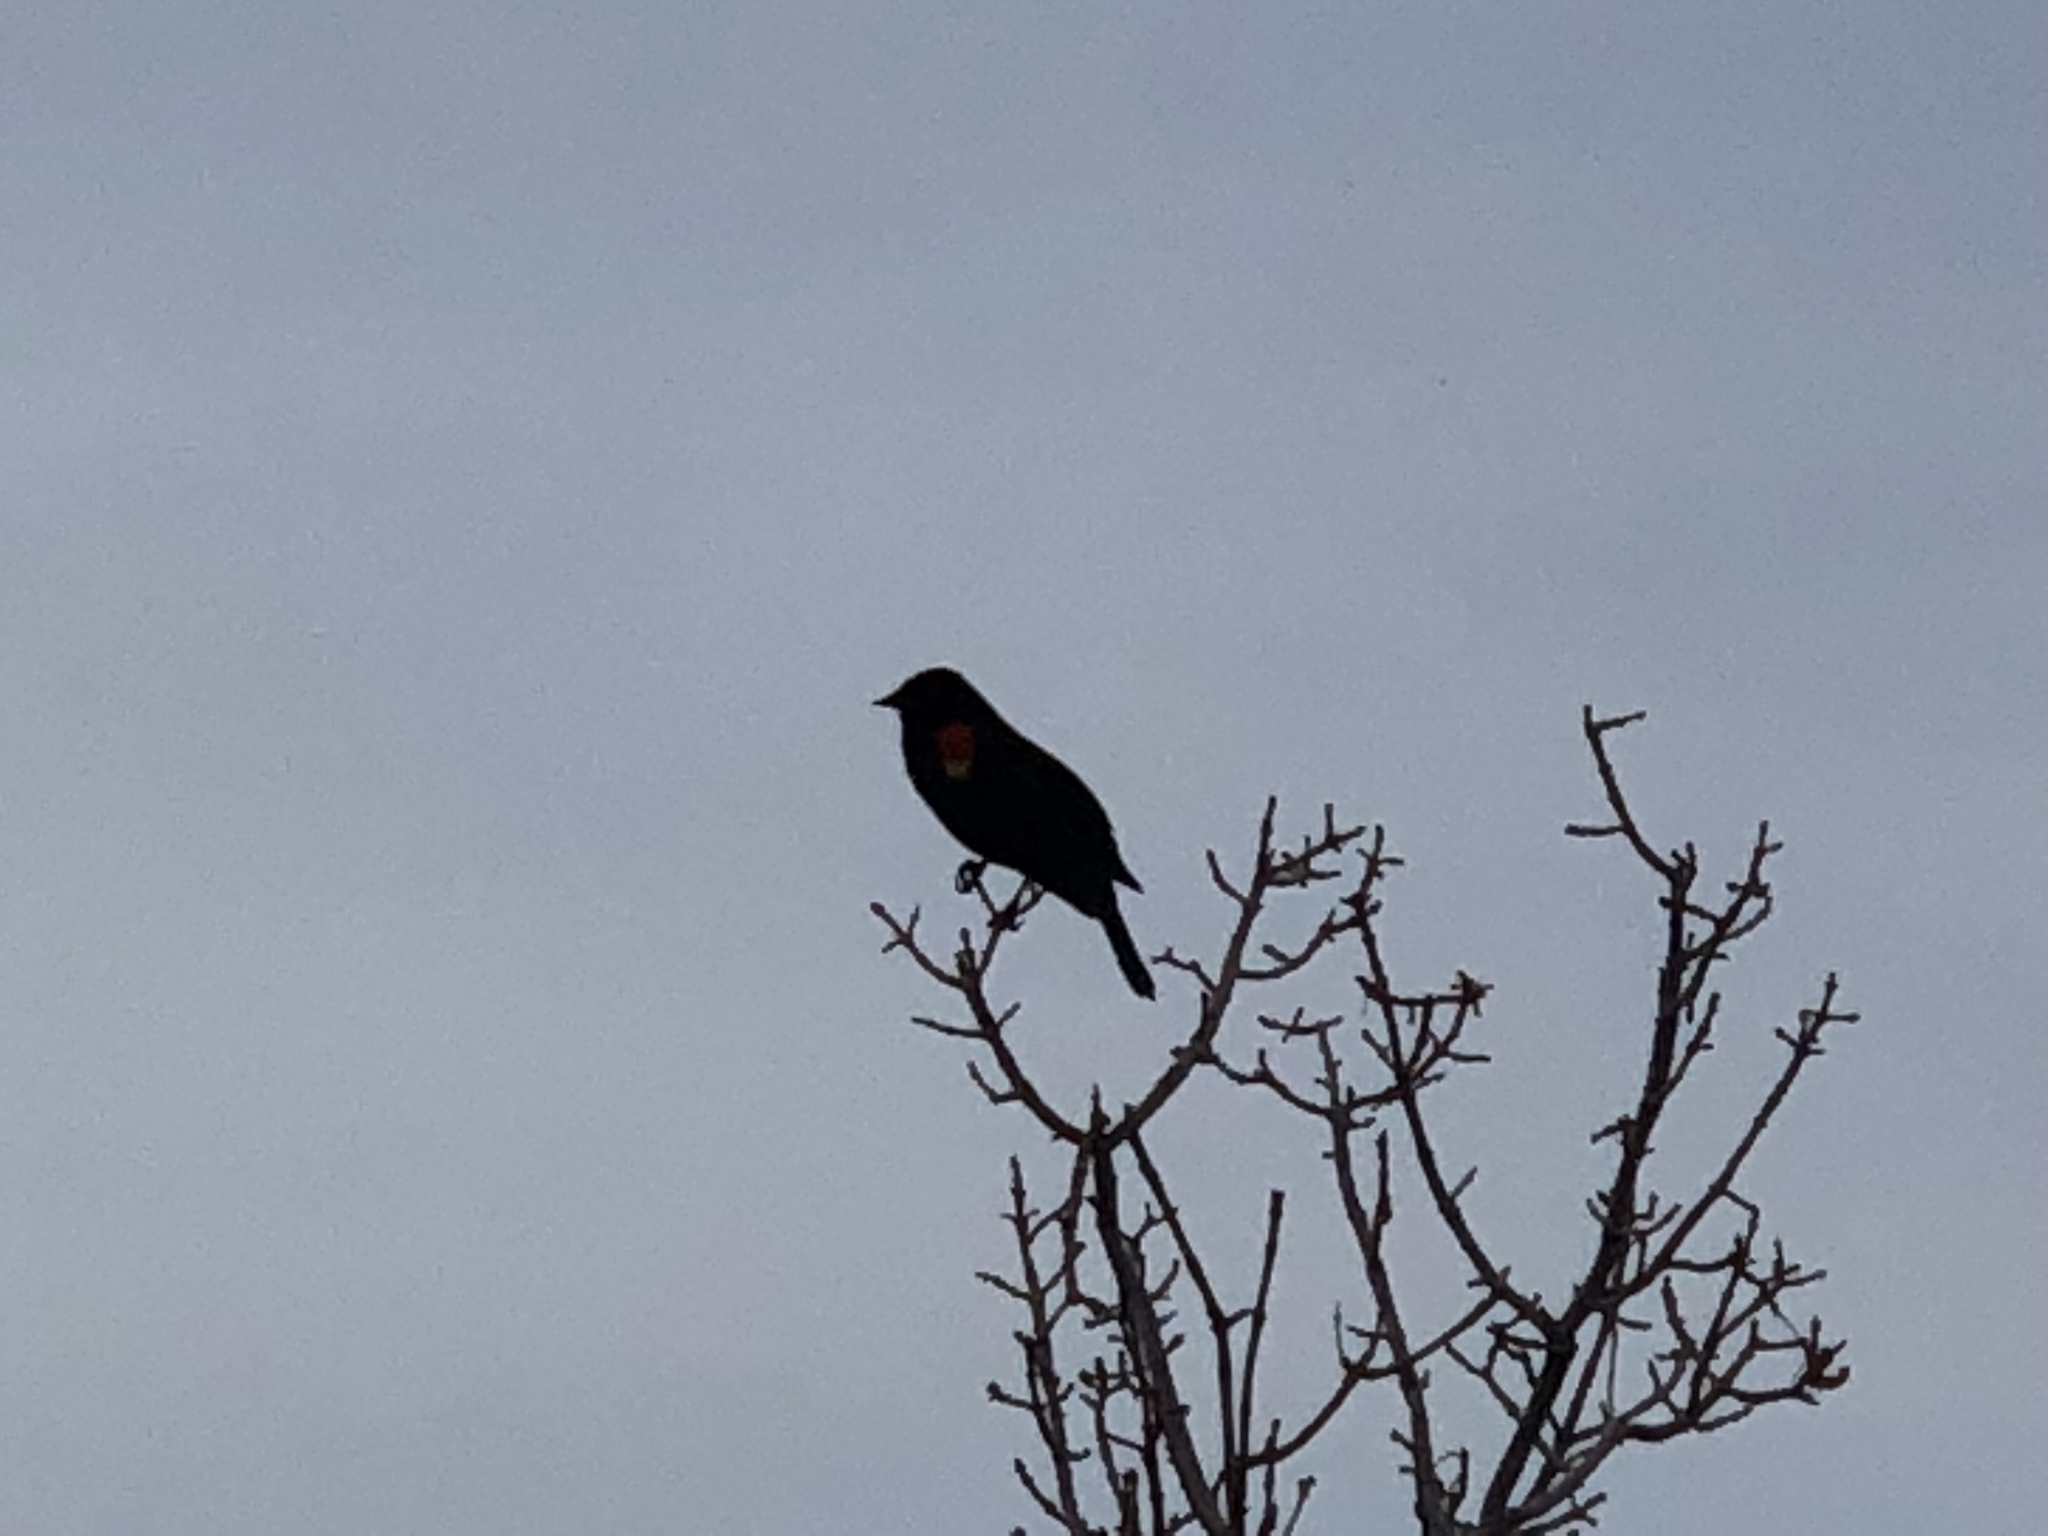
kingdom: Animalia
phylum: Chordata
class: Aves
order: Passeriformes
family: Icteridae
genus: Agelaius
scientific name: Agelaius phoeniceus
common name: Red-winged blackbird
